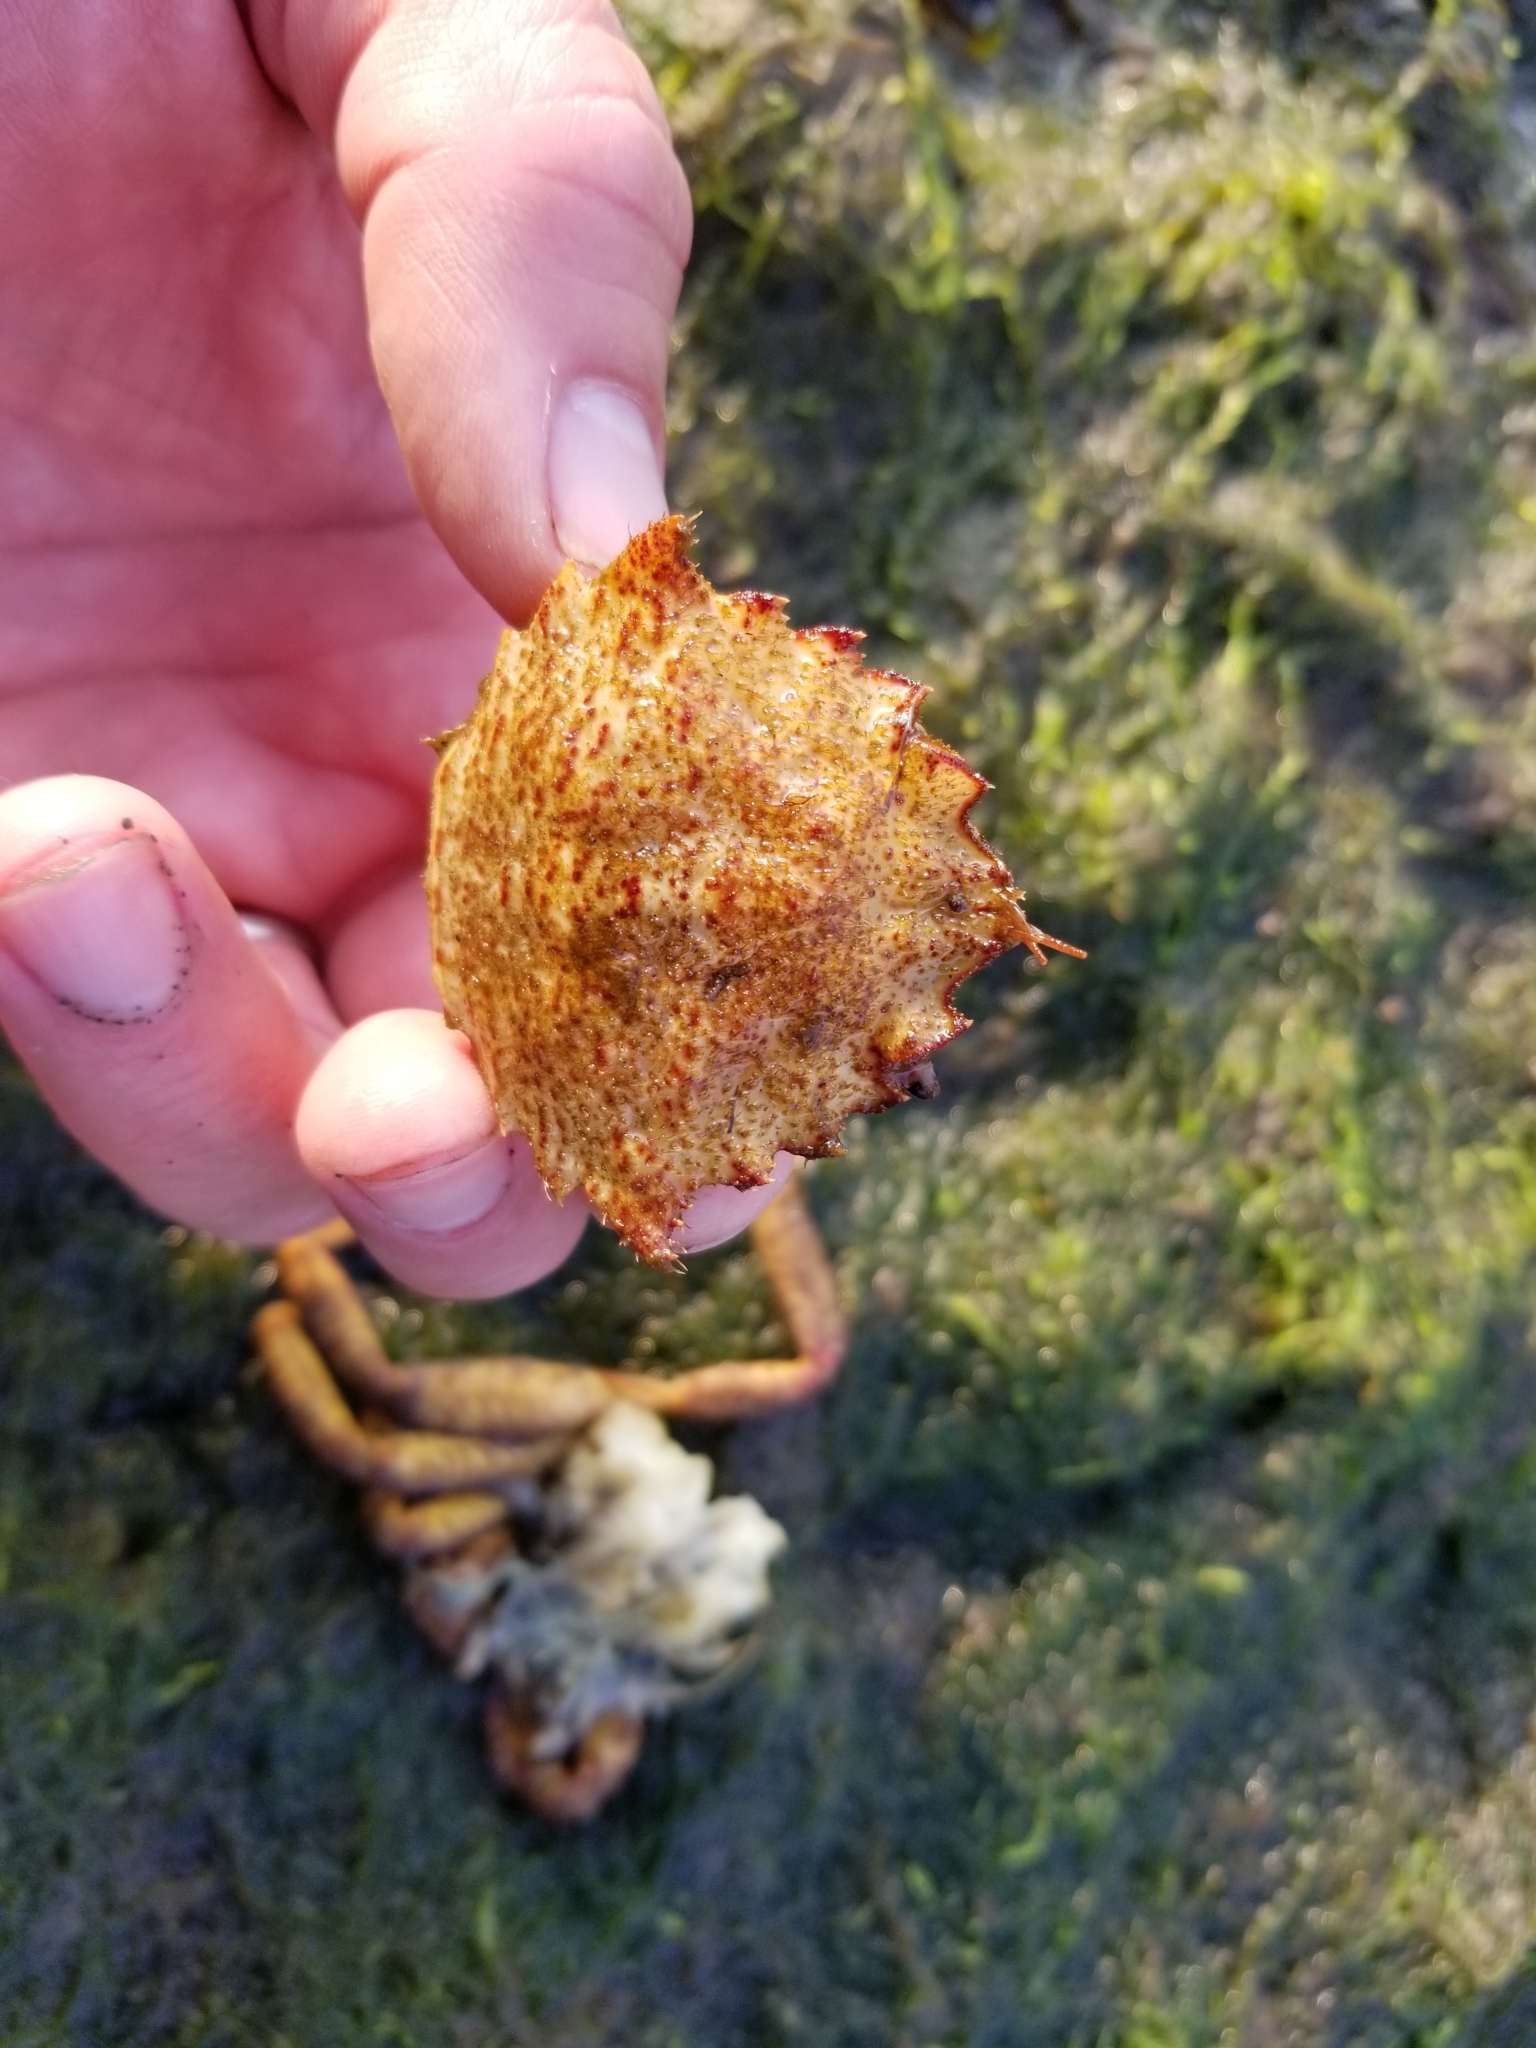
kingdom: Animalia
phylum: Arthropoda
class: Malacostraca
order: Decapoda
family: Cheiragonidae
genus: Telmessus
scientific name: Telmessus cheiragonus
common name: Helmet crab
